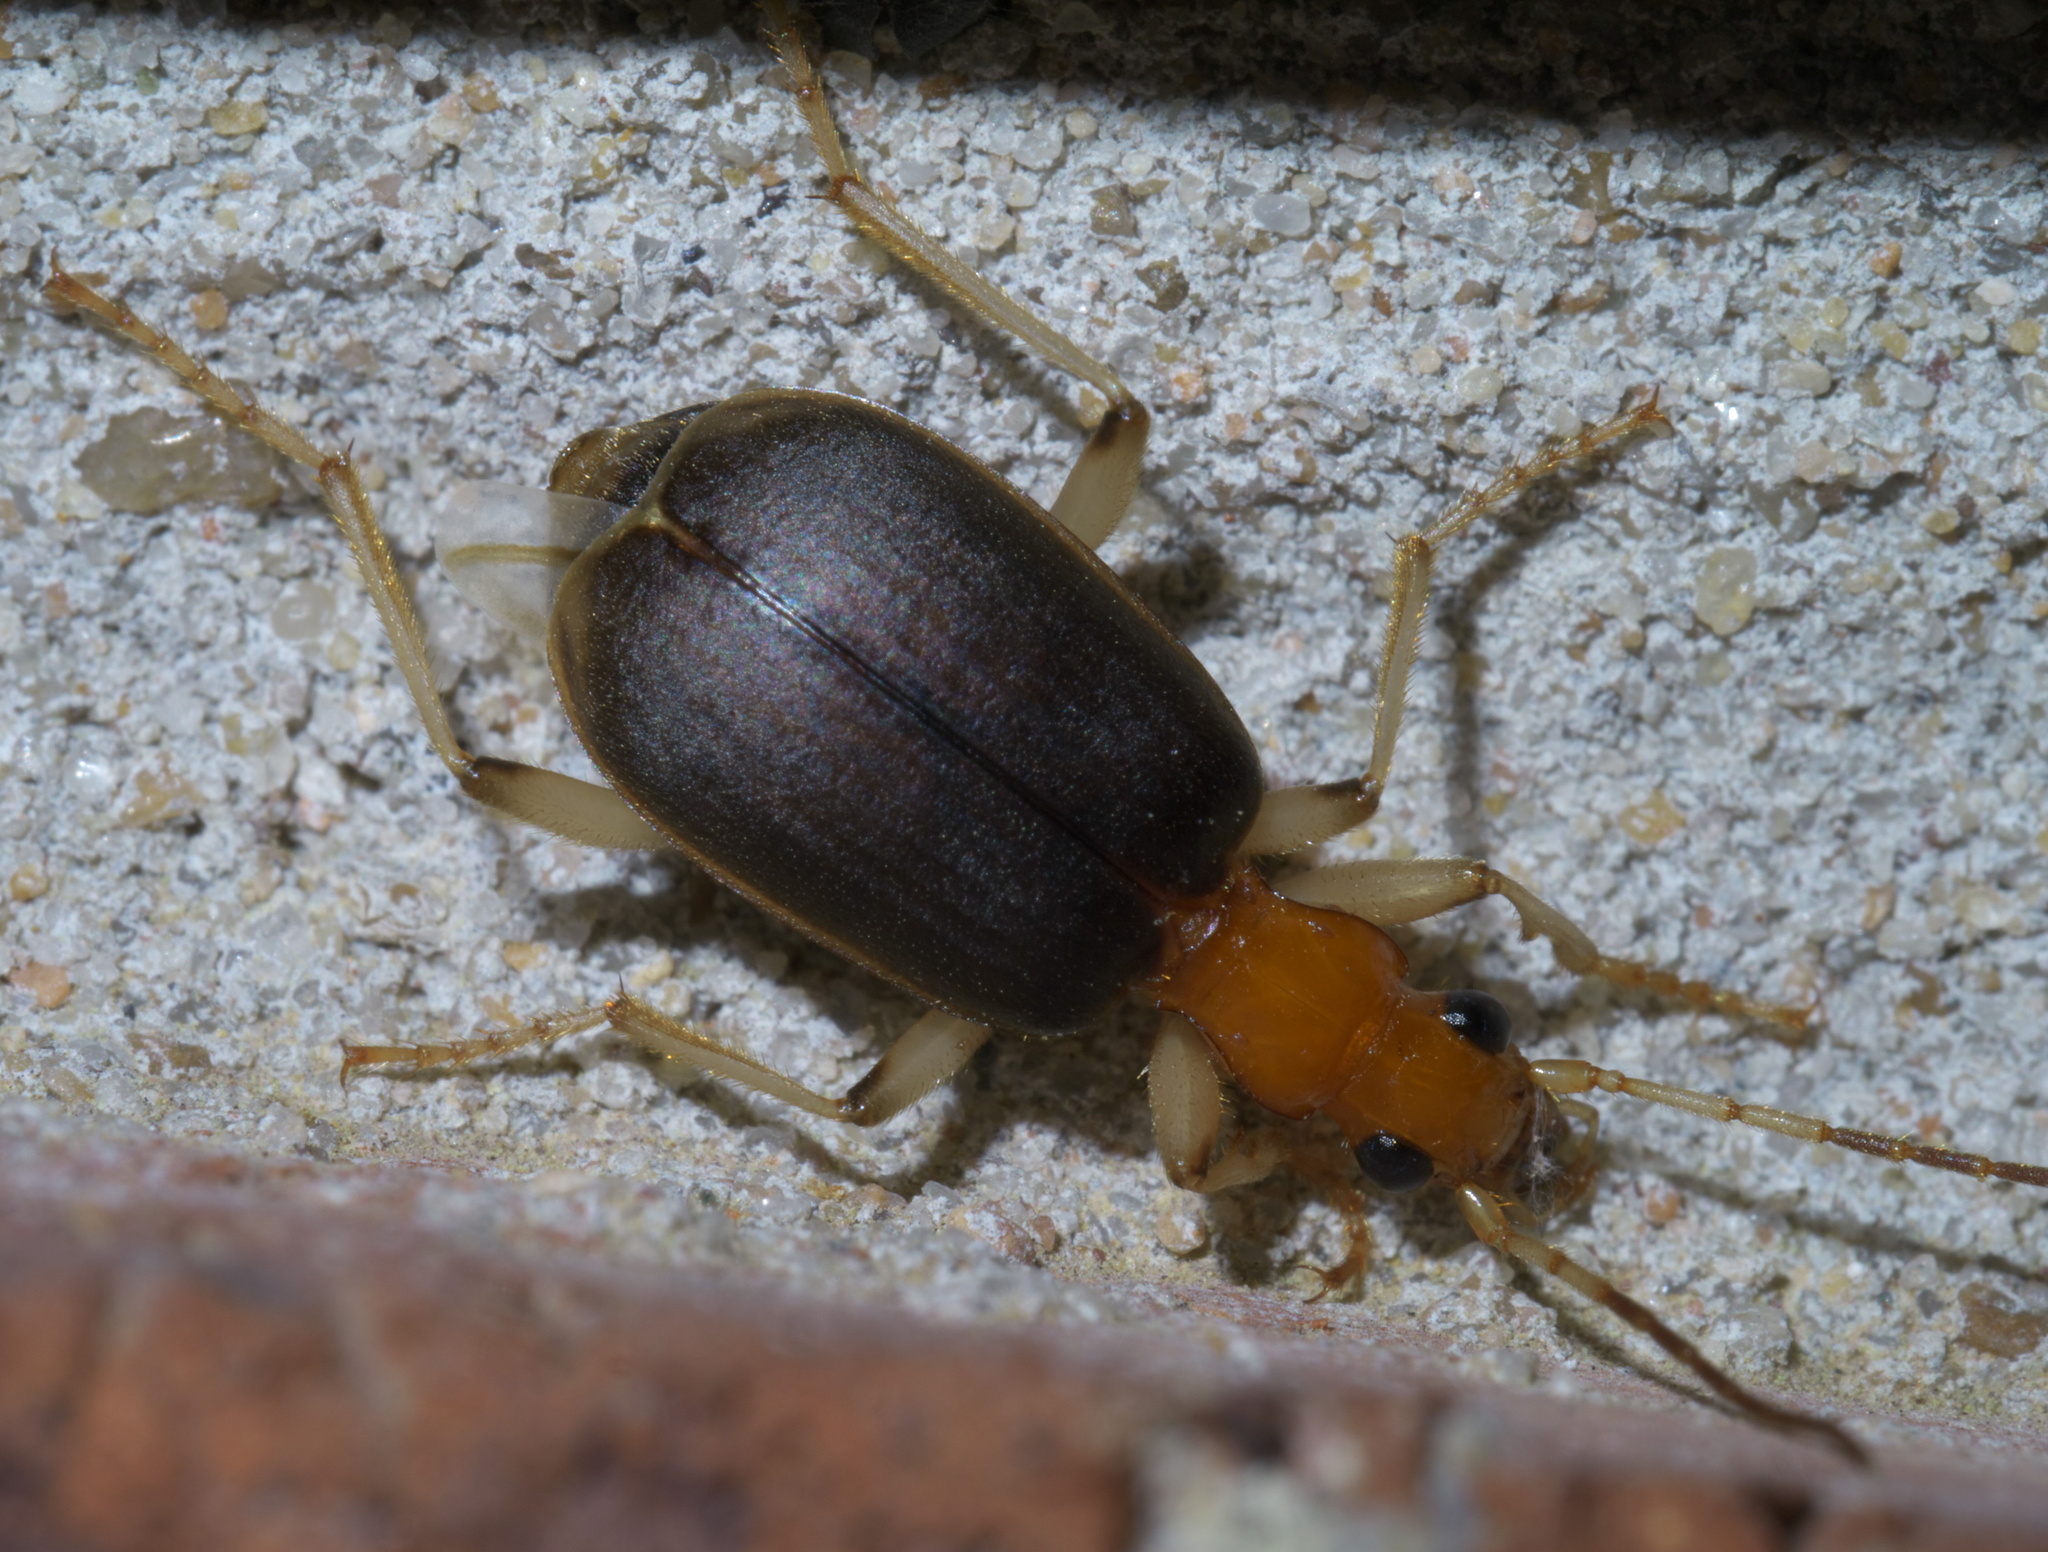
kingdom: Animalia
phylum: Arthropoda
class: Insecta
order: Coleoptera
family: Carabidae
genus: Brachinus
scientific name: Brachinus adustipennis
